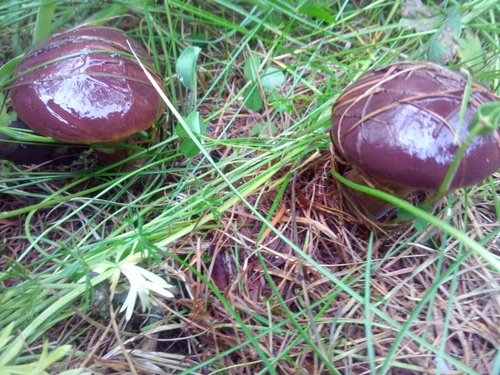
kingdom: Fungi
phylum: Basidiomycota
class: Agaricomycetes
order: Boletales
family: Suillaceae
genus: Suillus
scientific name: Suillus
